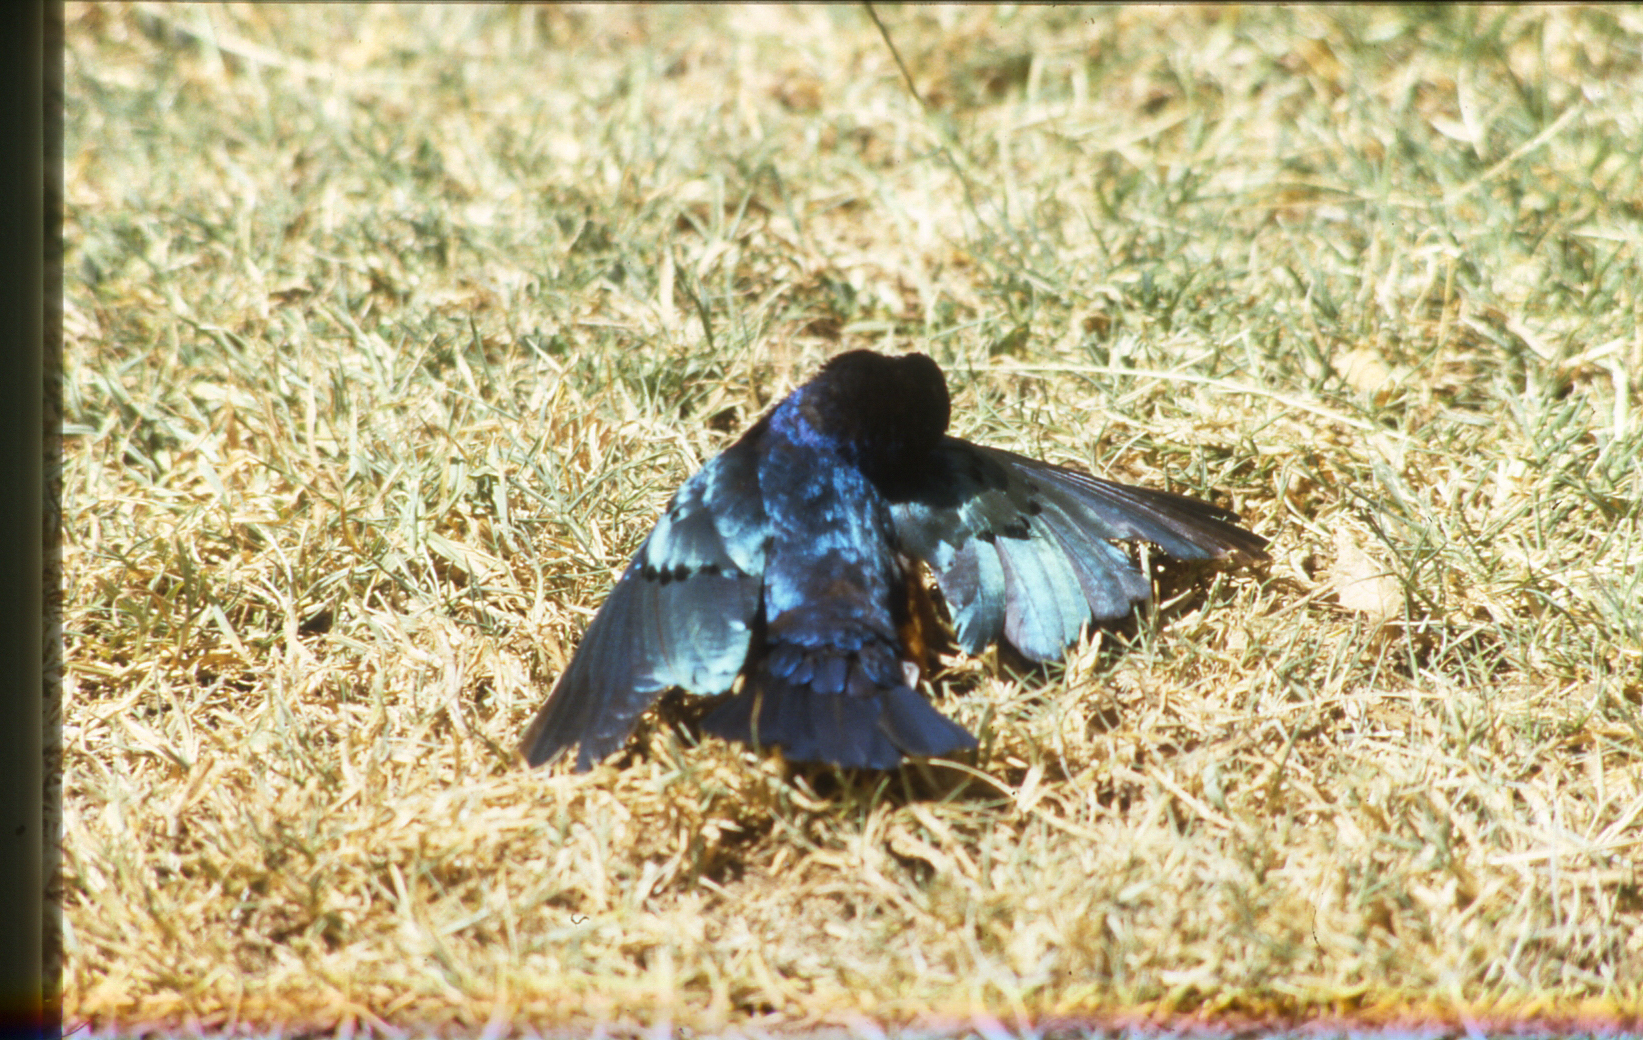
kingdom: Animalia
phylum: Chordata
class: Aves
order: Passeriformes
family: Sturnidae
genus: Lamprotornis
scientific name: Lamprotornis superbus
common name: Superb starling
